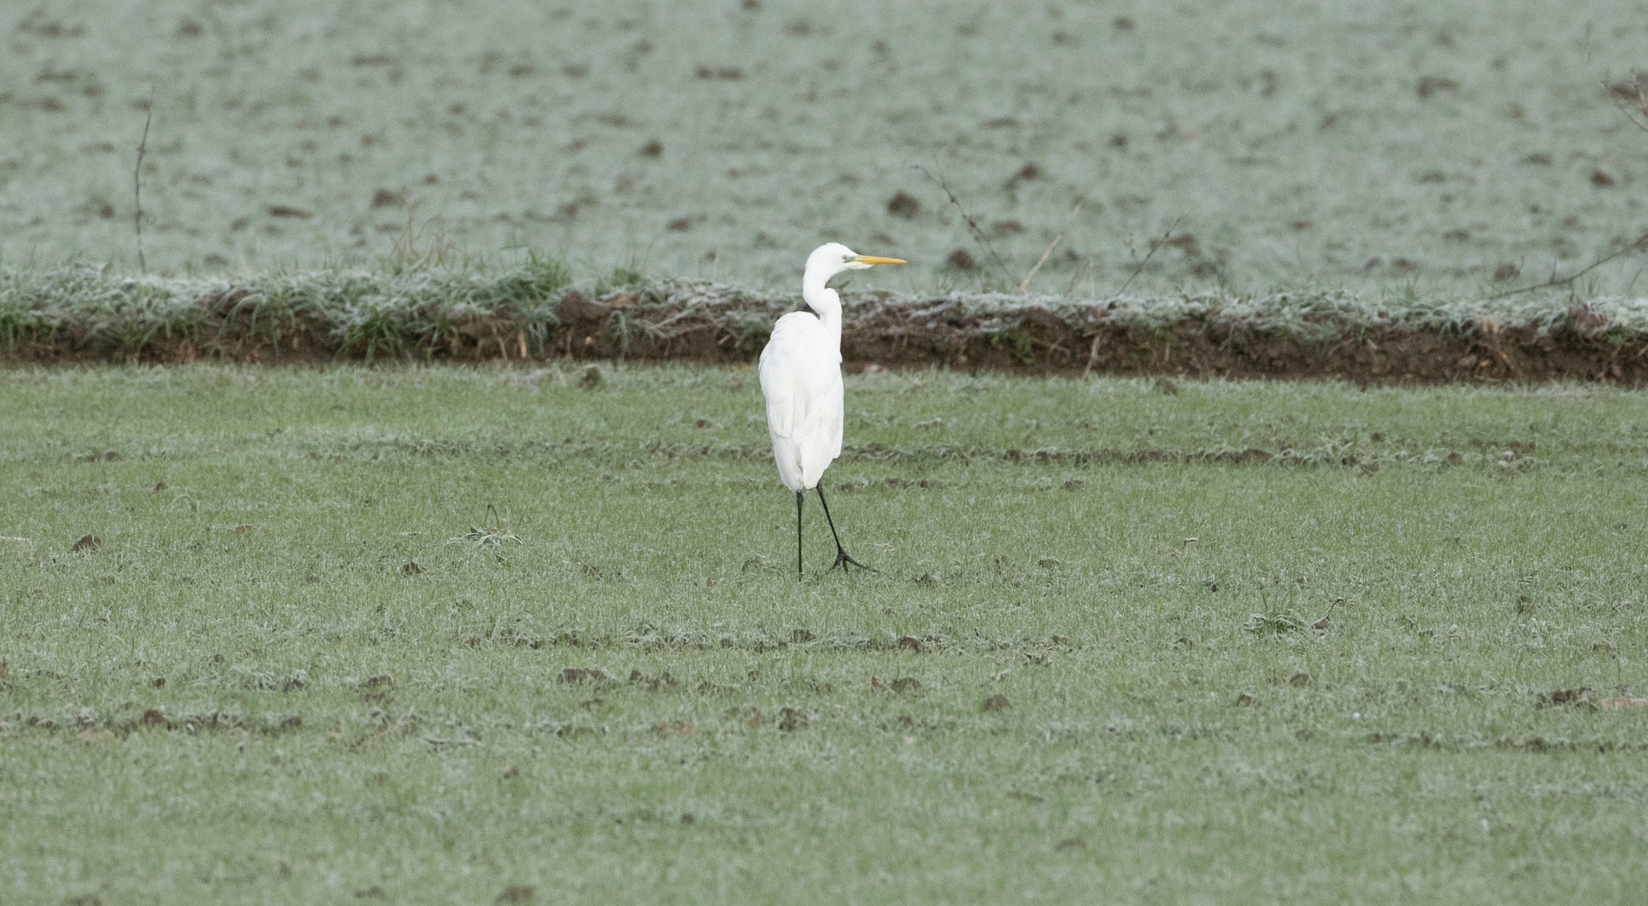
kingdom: Animalia
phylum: Chordata
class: Aves
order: Pelecaniformes
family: Ardeidae
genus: Ardea
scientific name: Ardea alba
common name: Great egret
